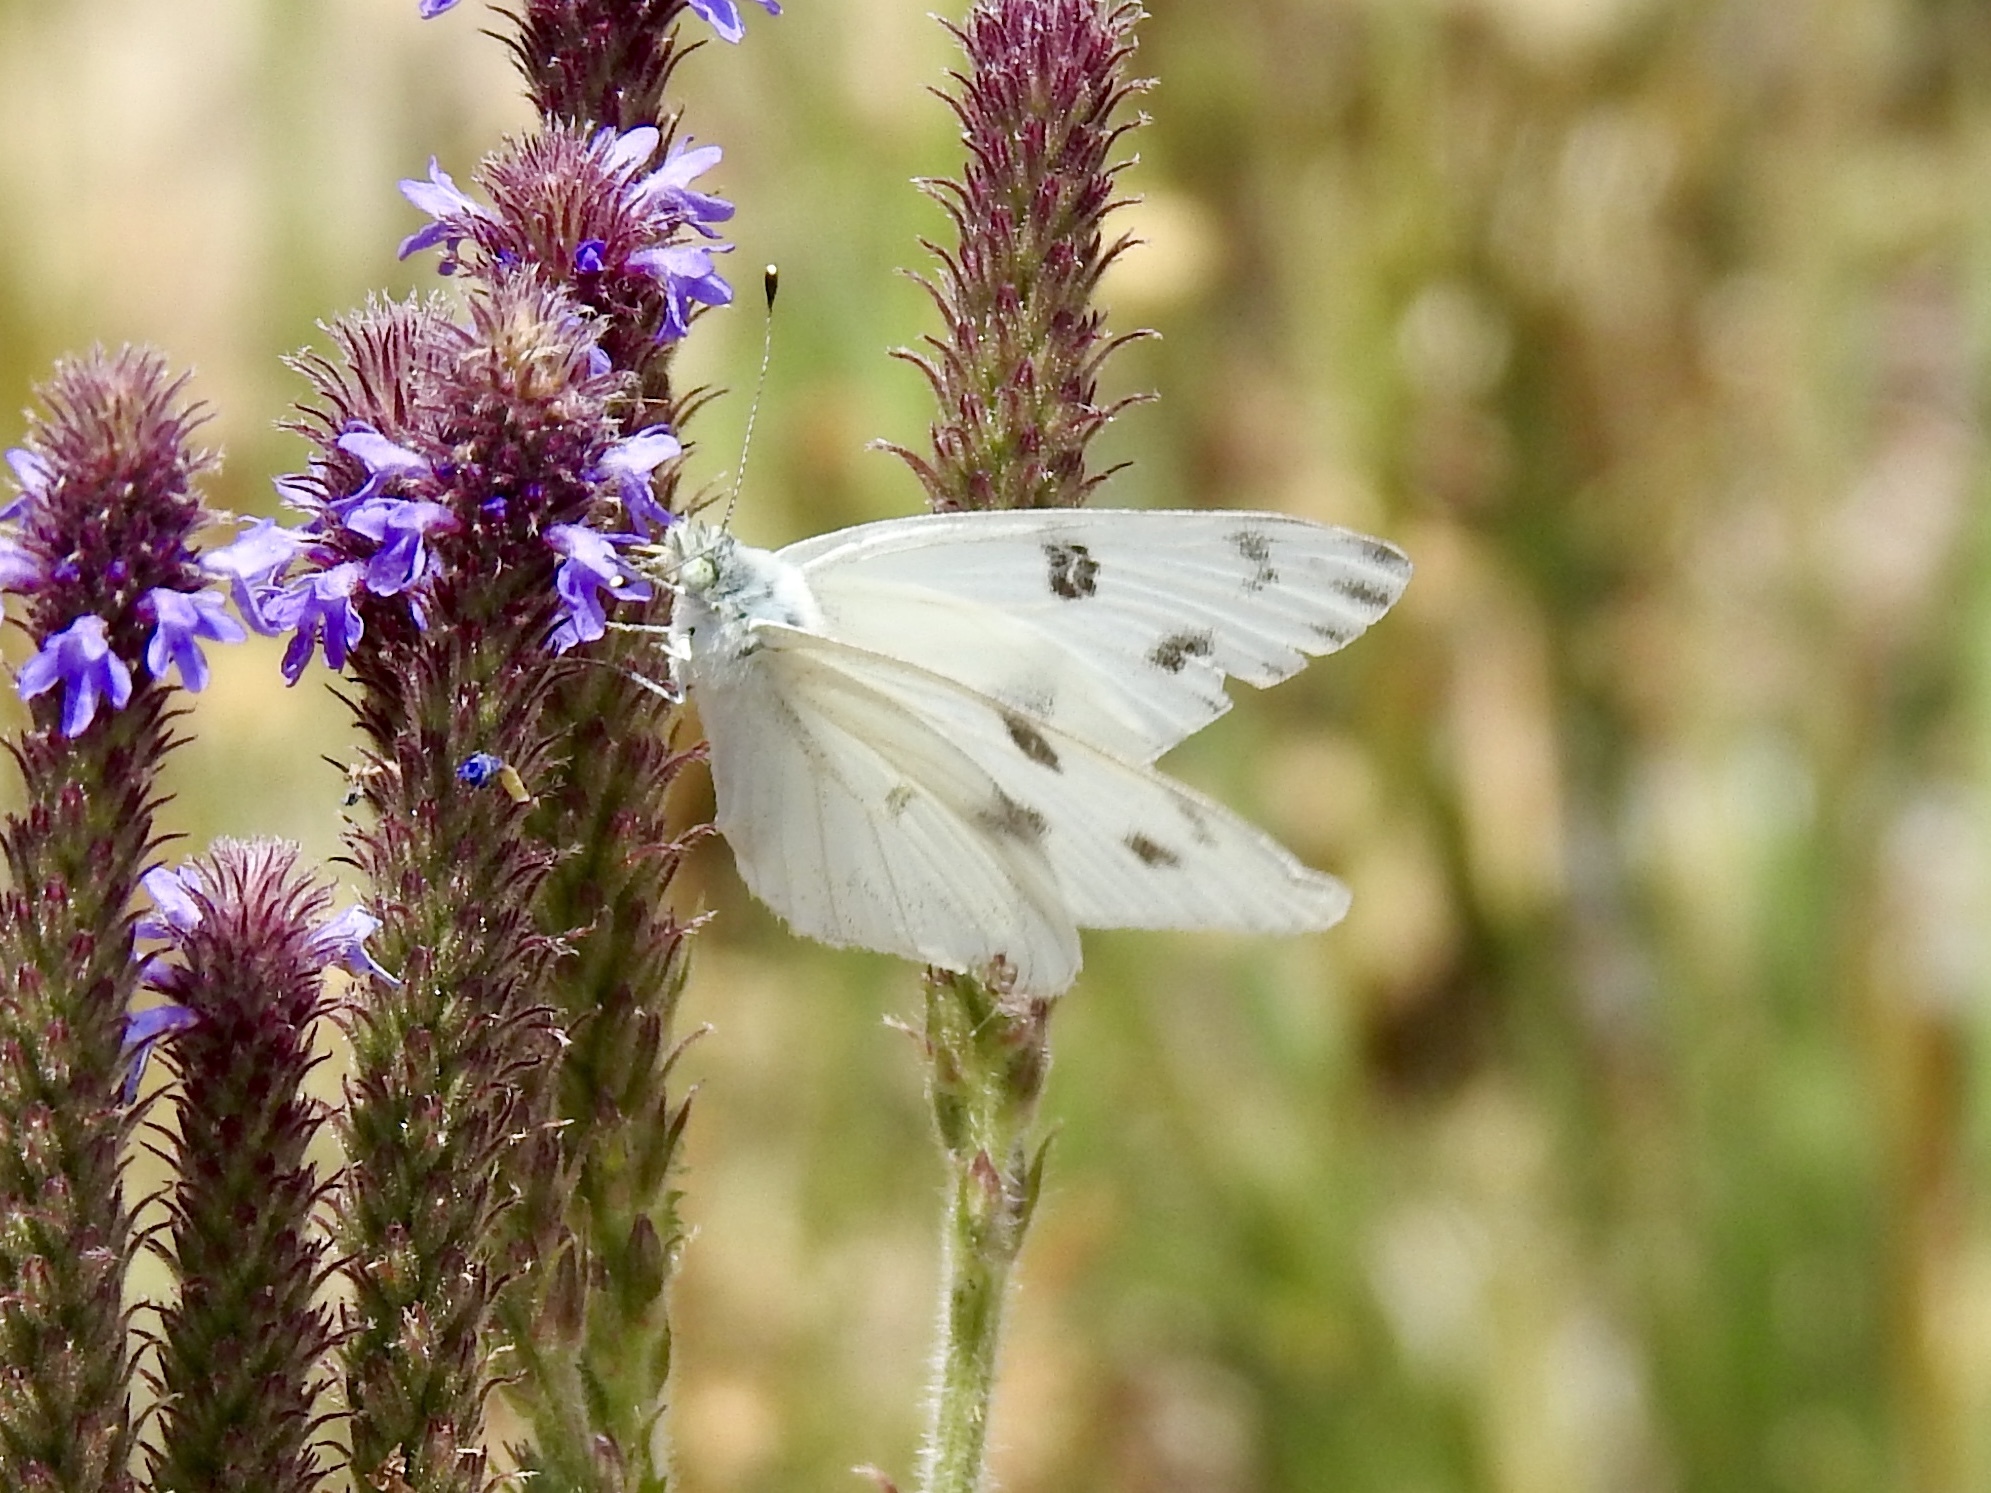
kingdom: Animalia
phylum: Arthropoda
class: Insecta
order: Lepidoptera
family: Pieridae
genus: Pontia
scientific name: Pontia protodice
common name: Checkered white
